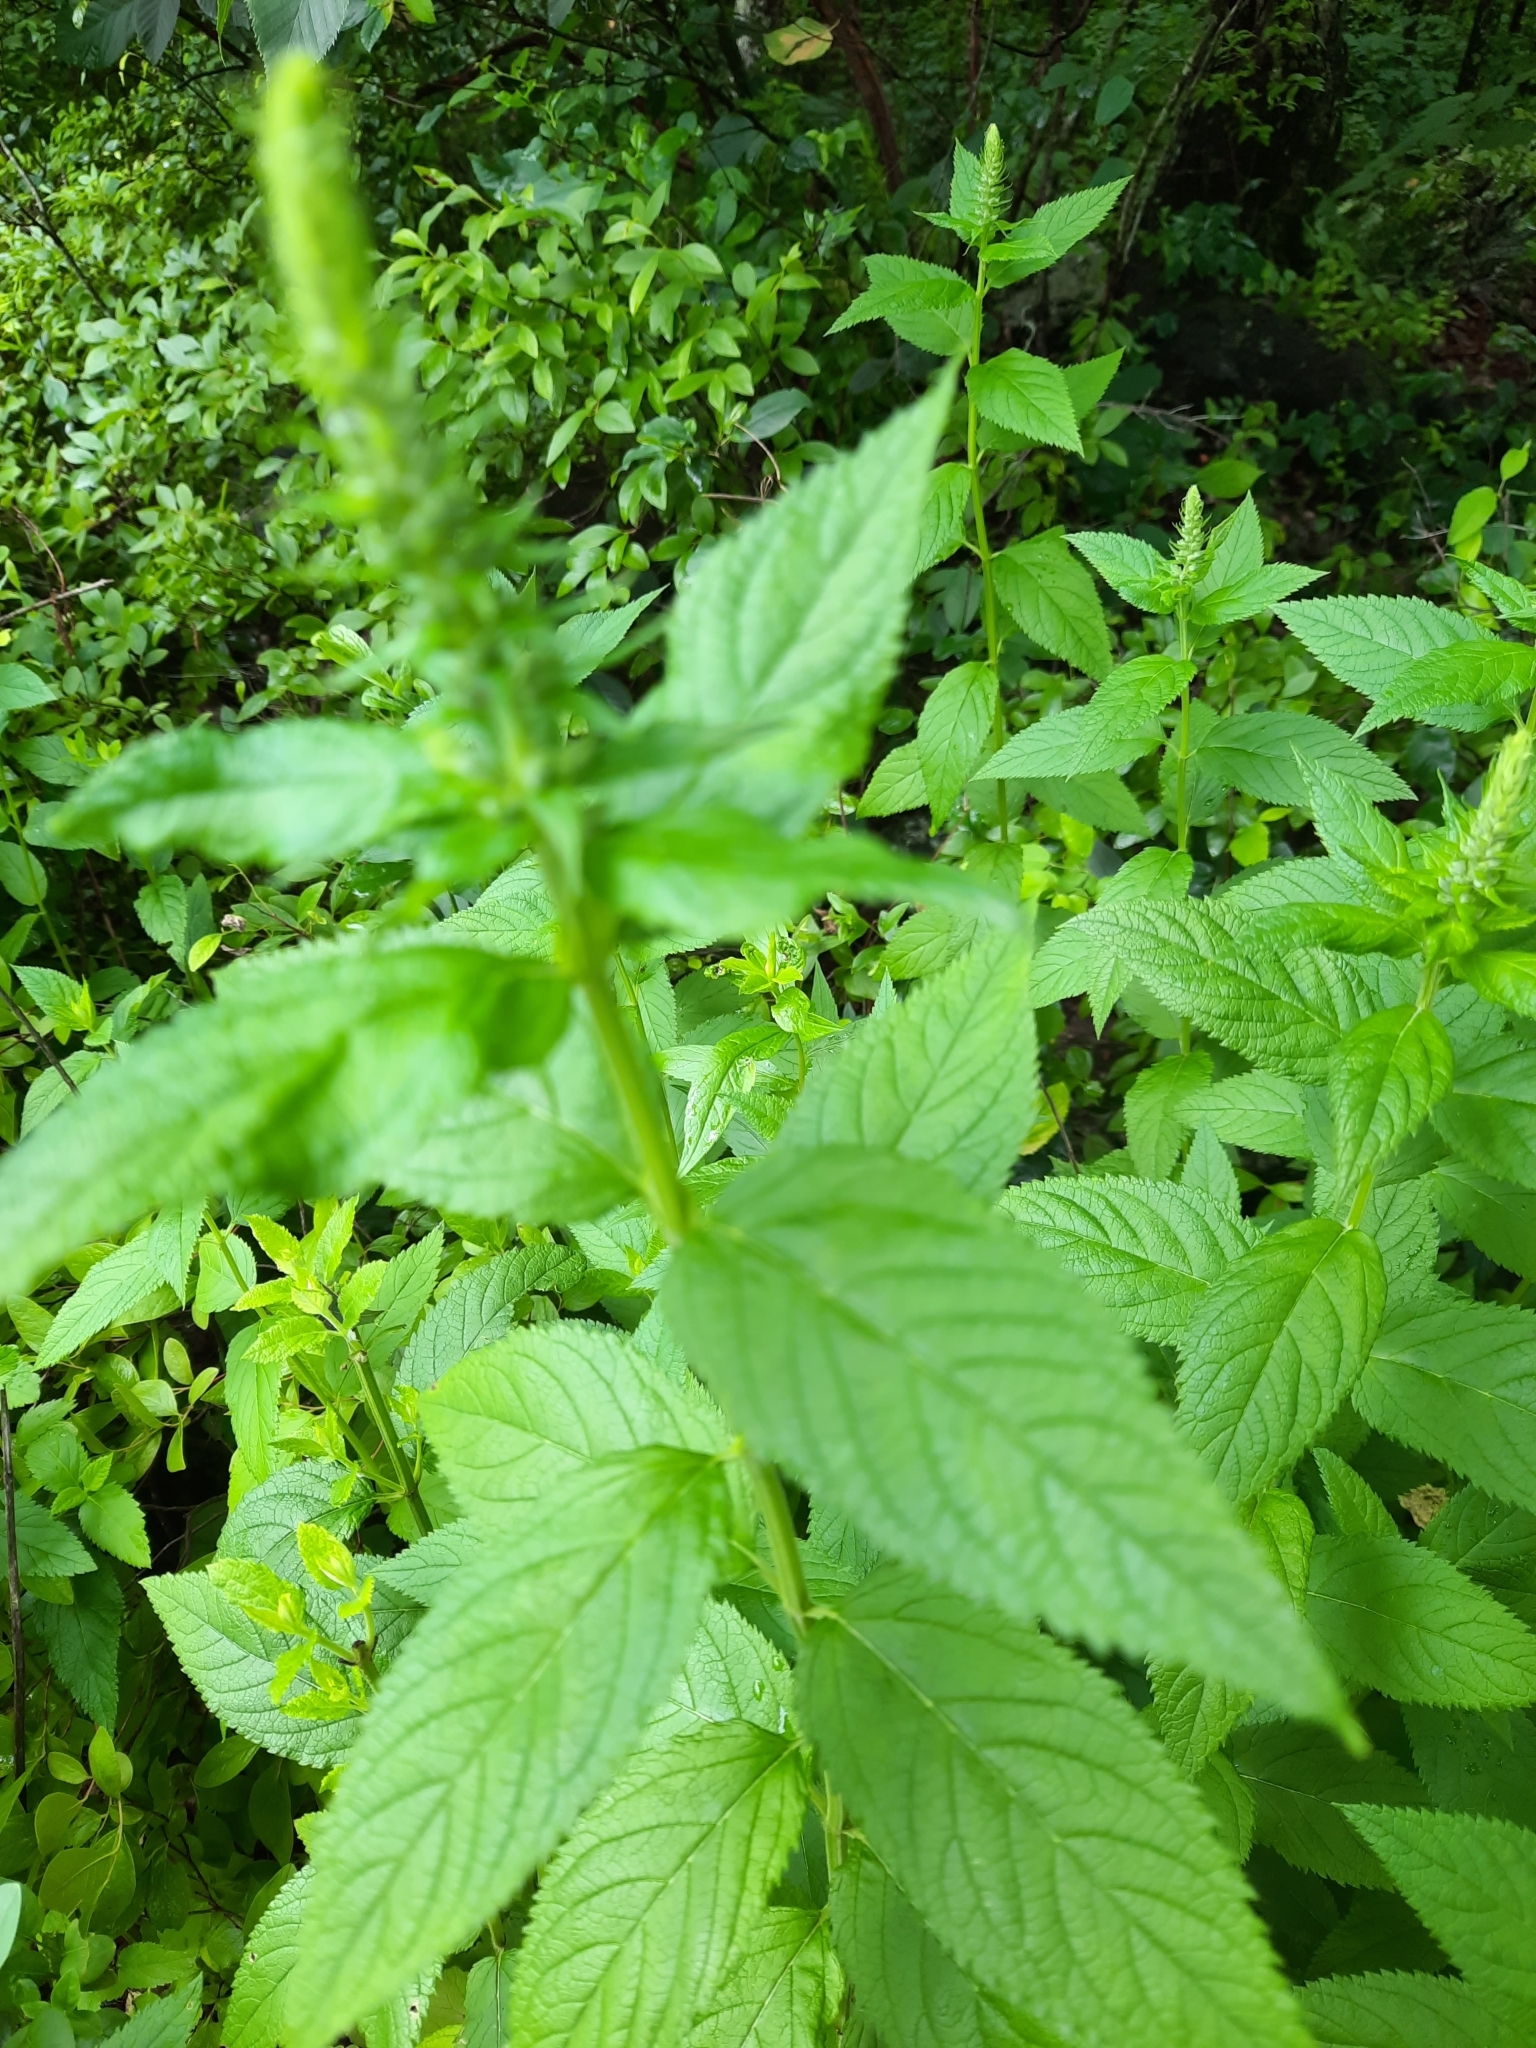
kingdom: Plantae
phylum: Tracheophyta
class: Magnoliopsida
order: Lamiales
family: Lamiaceae
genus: Teucrium
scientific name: Teucrium canadense
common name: American germander
